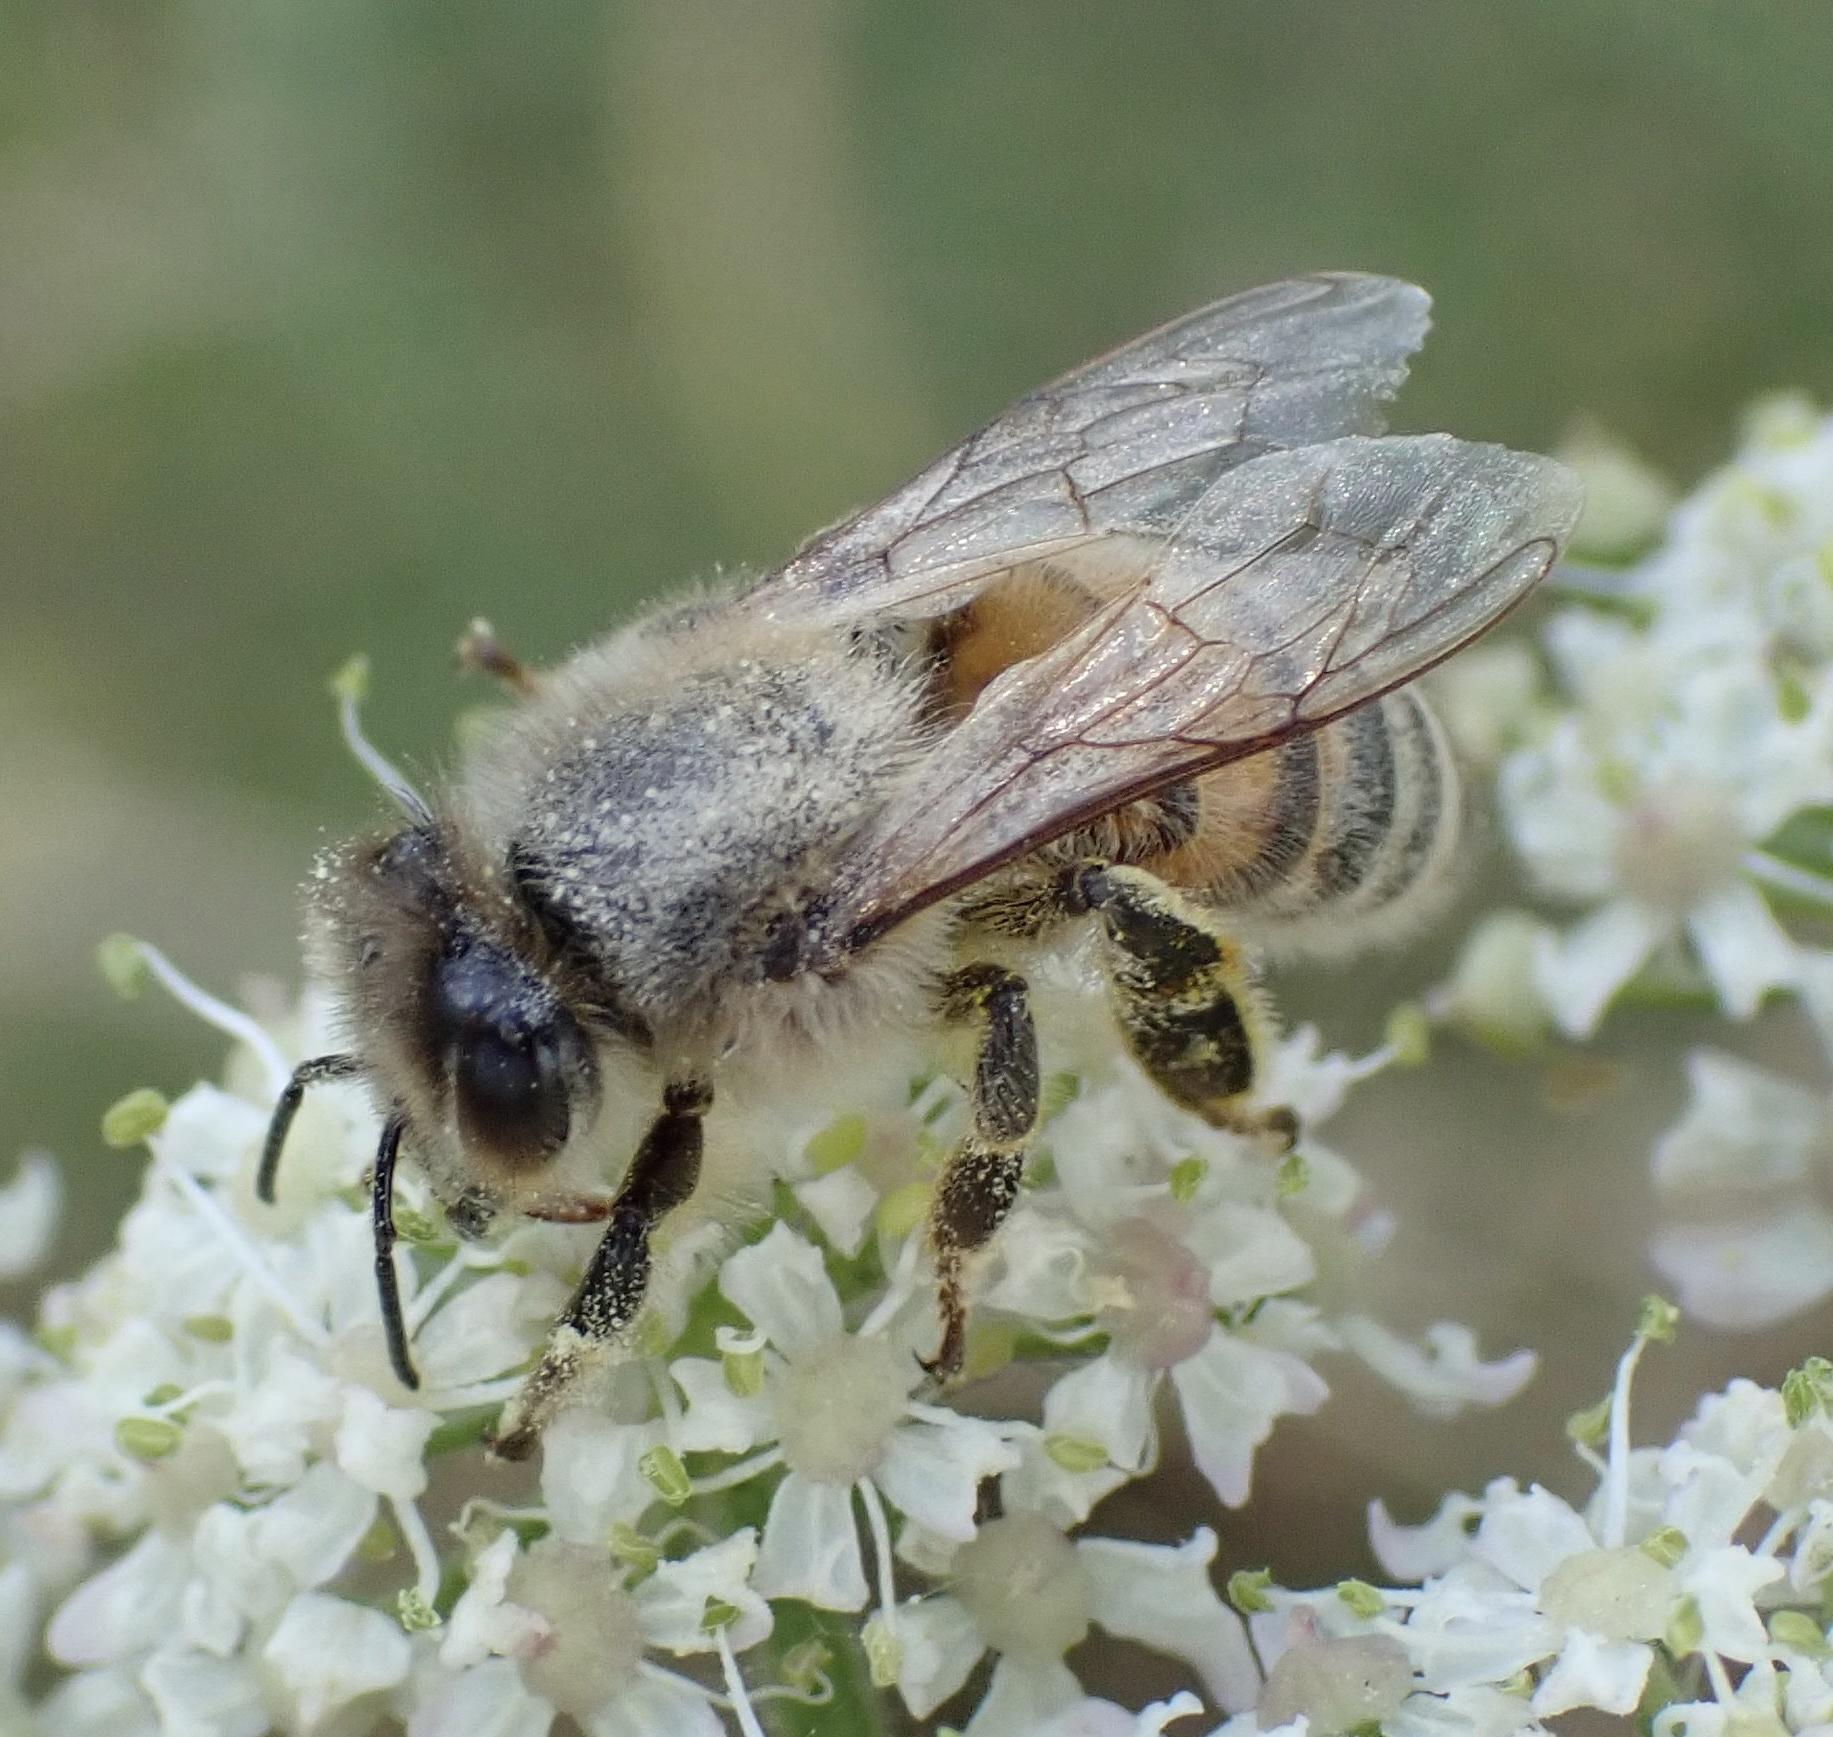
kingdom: Animalia
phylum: Arthropoda
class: Insecta
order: Hymenoptera
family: Apidae
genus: Apis
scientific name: Apis mellifera
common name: Honey bee
